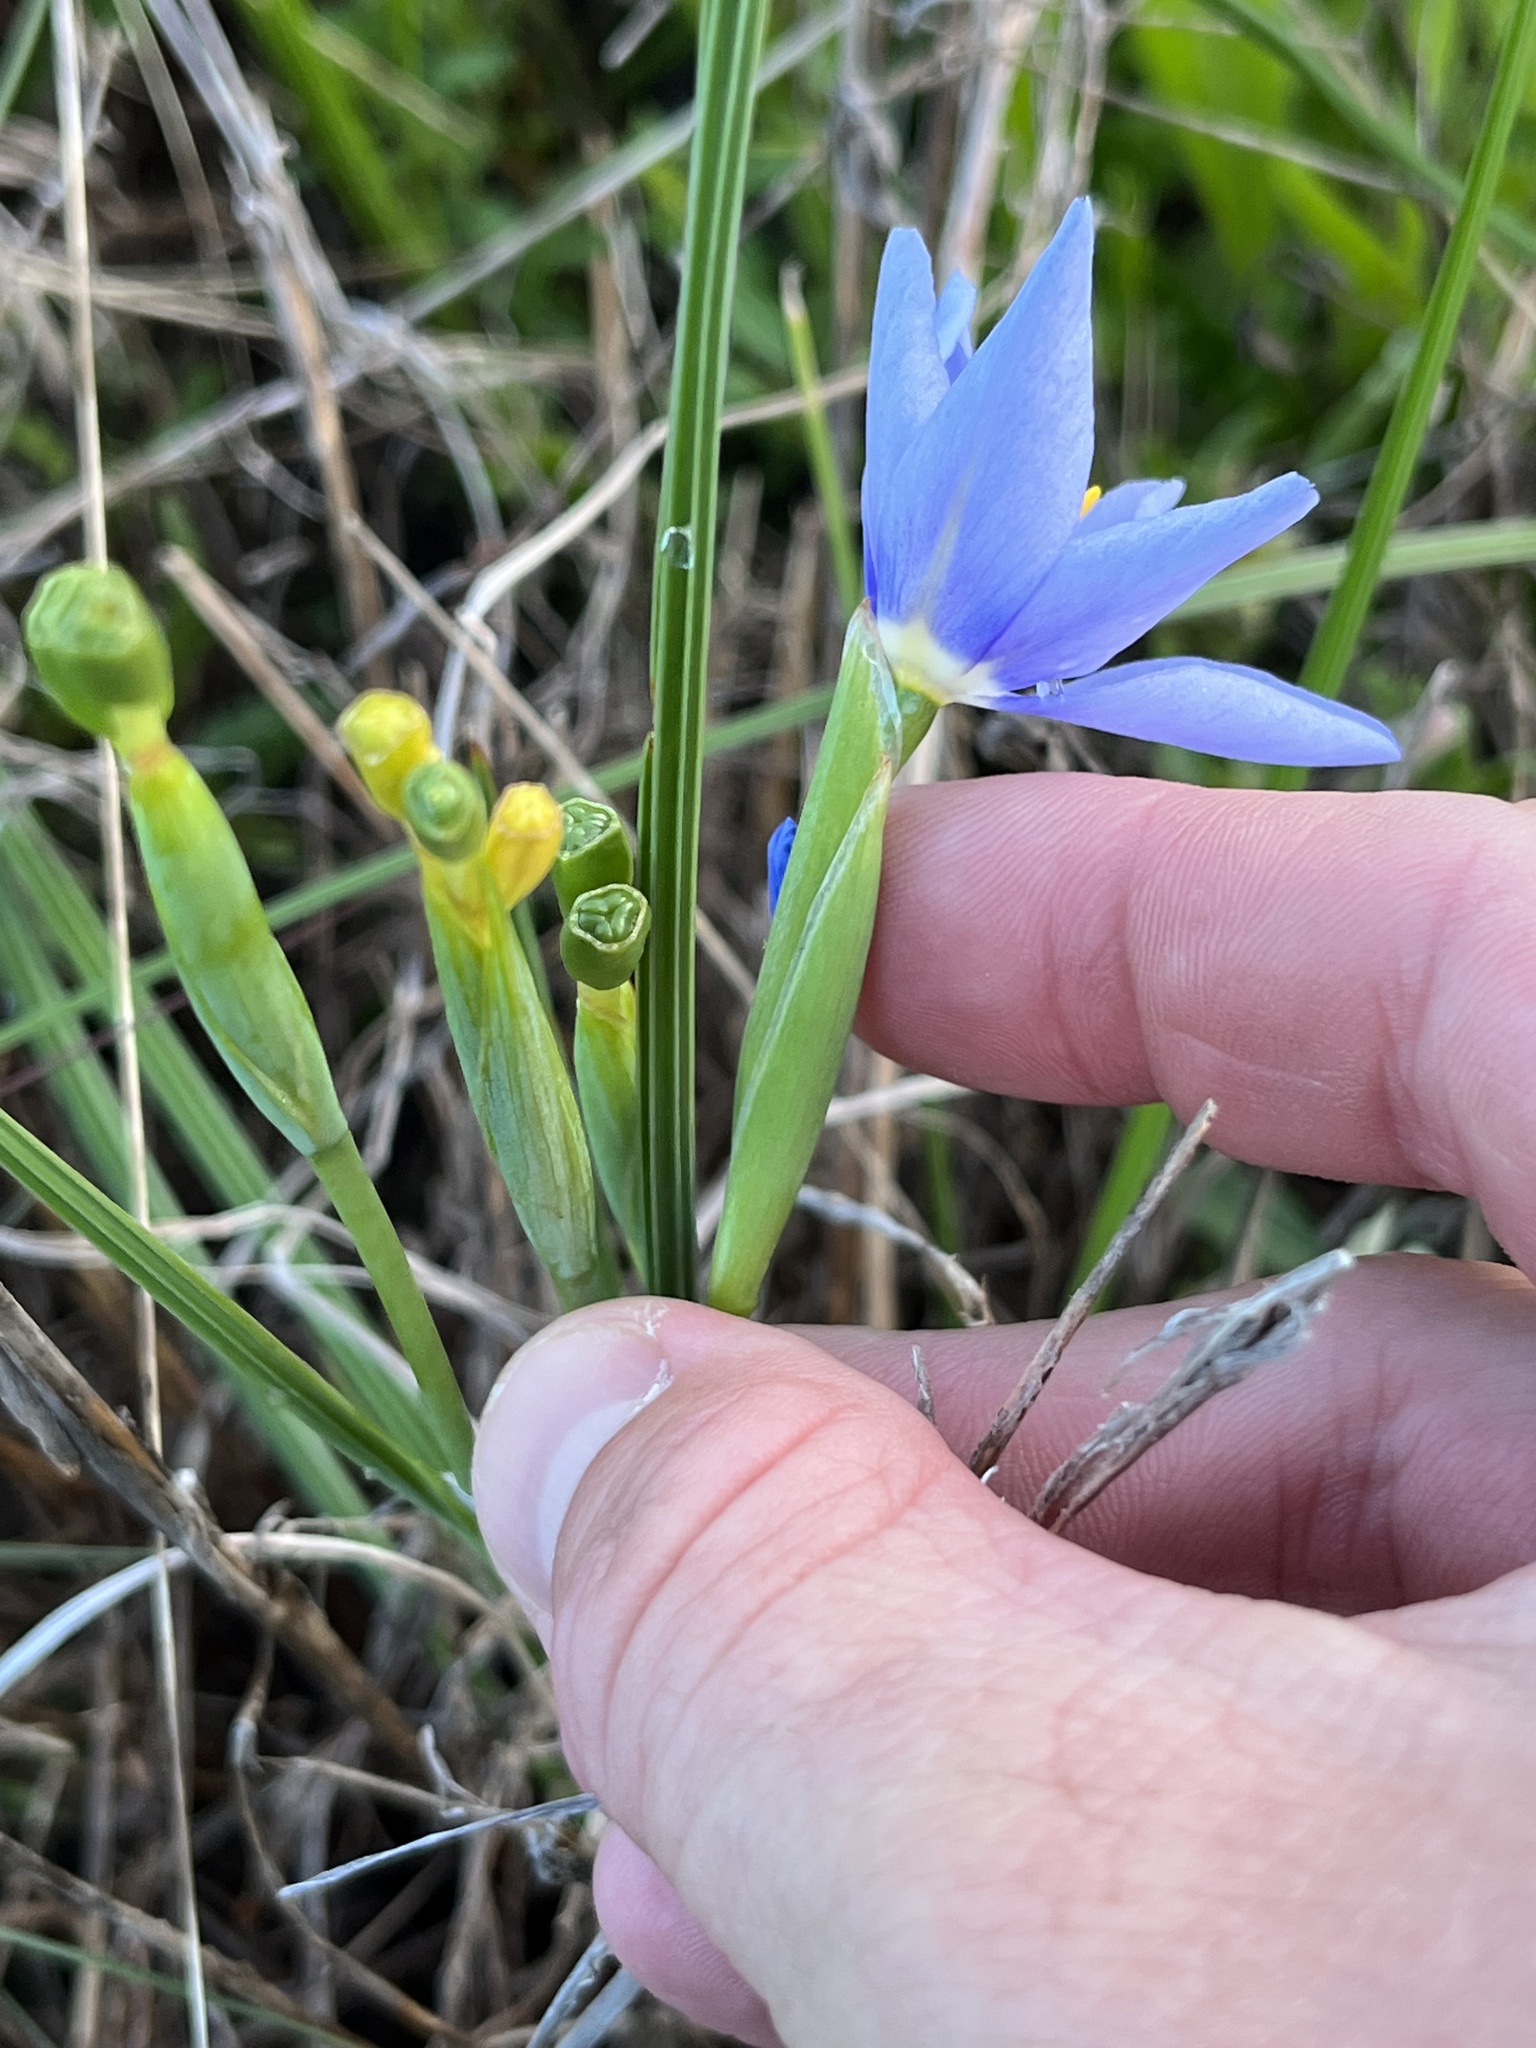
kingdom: Plantae
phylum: Tracheophyta
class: Liliopsida
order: Asparagales
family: Iridaceae
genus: Nemastylis
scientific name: Nemastylis geminiflora
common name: Prairie celestial
